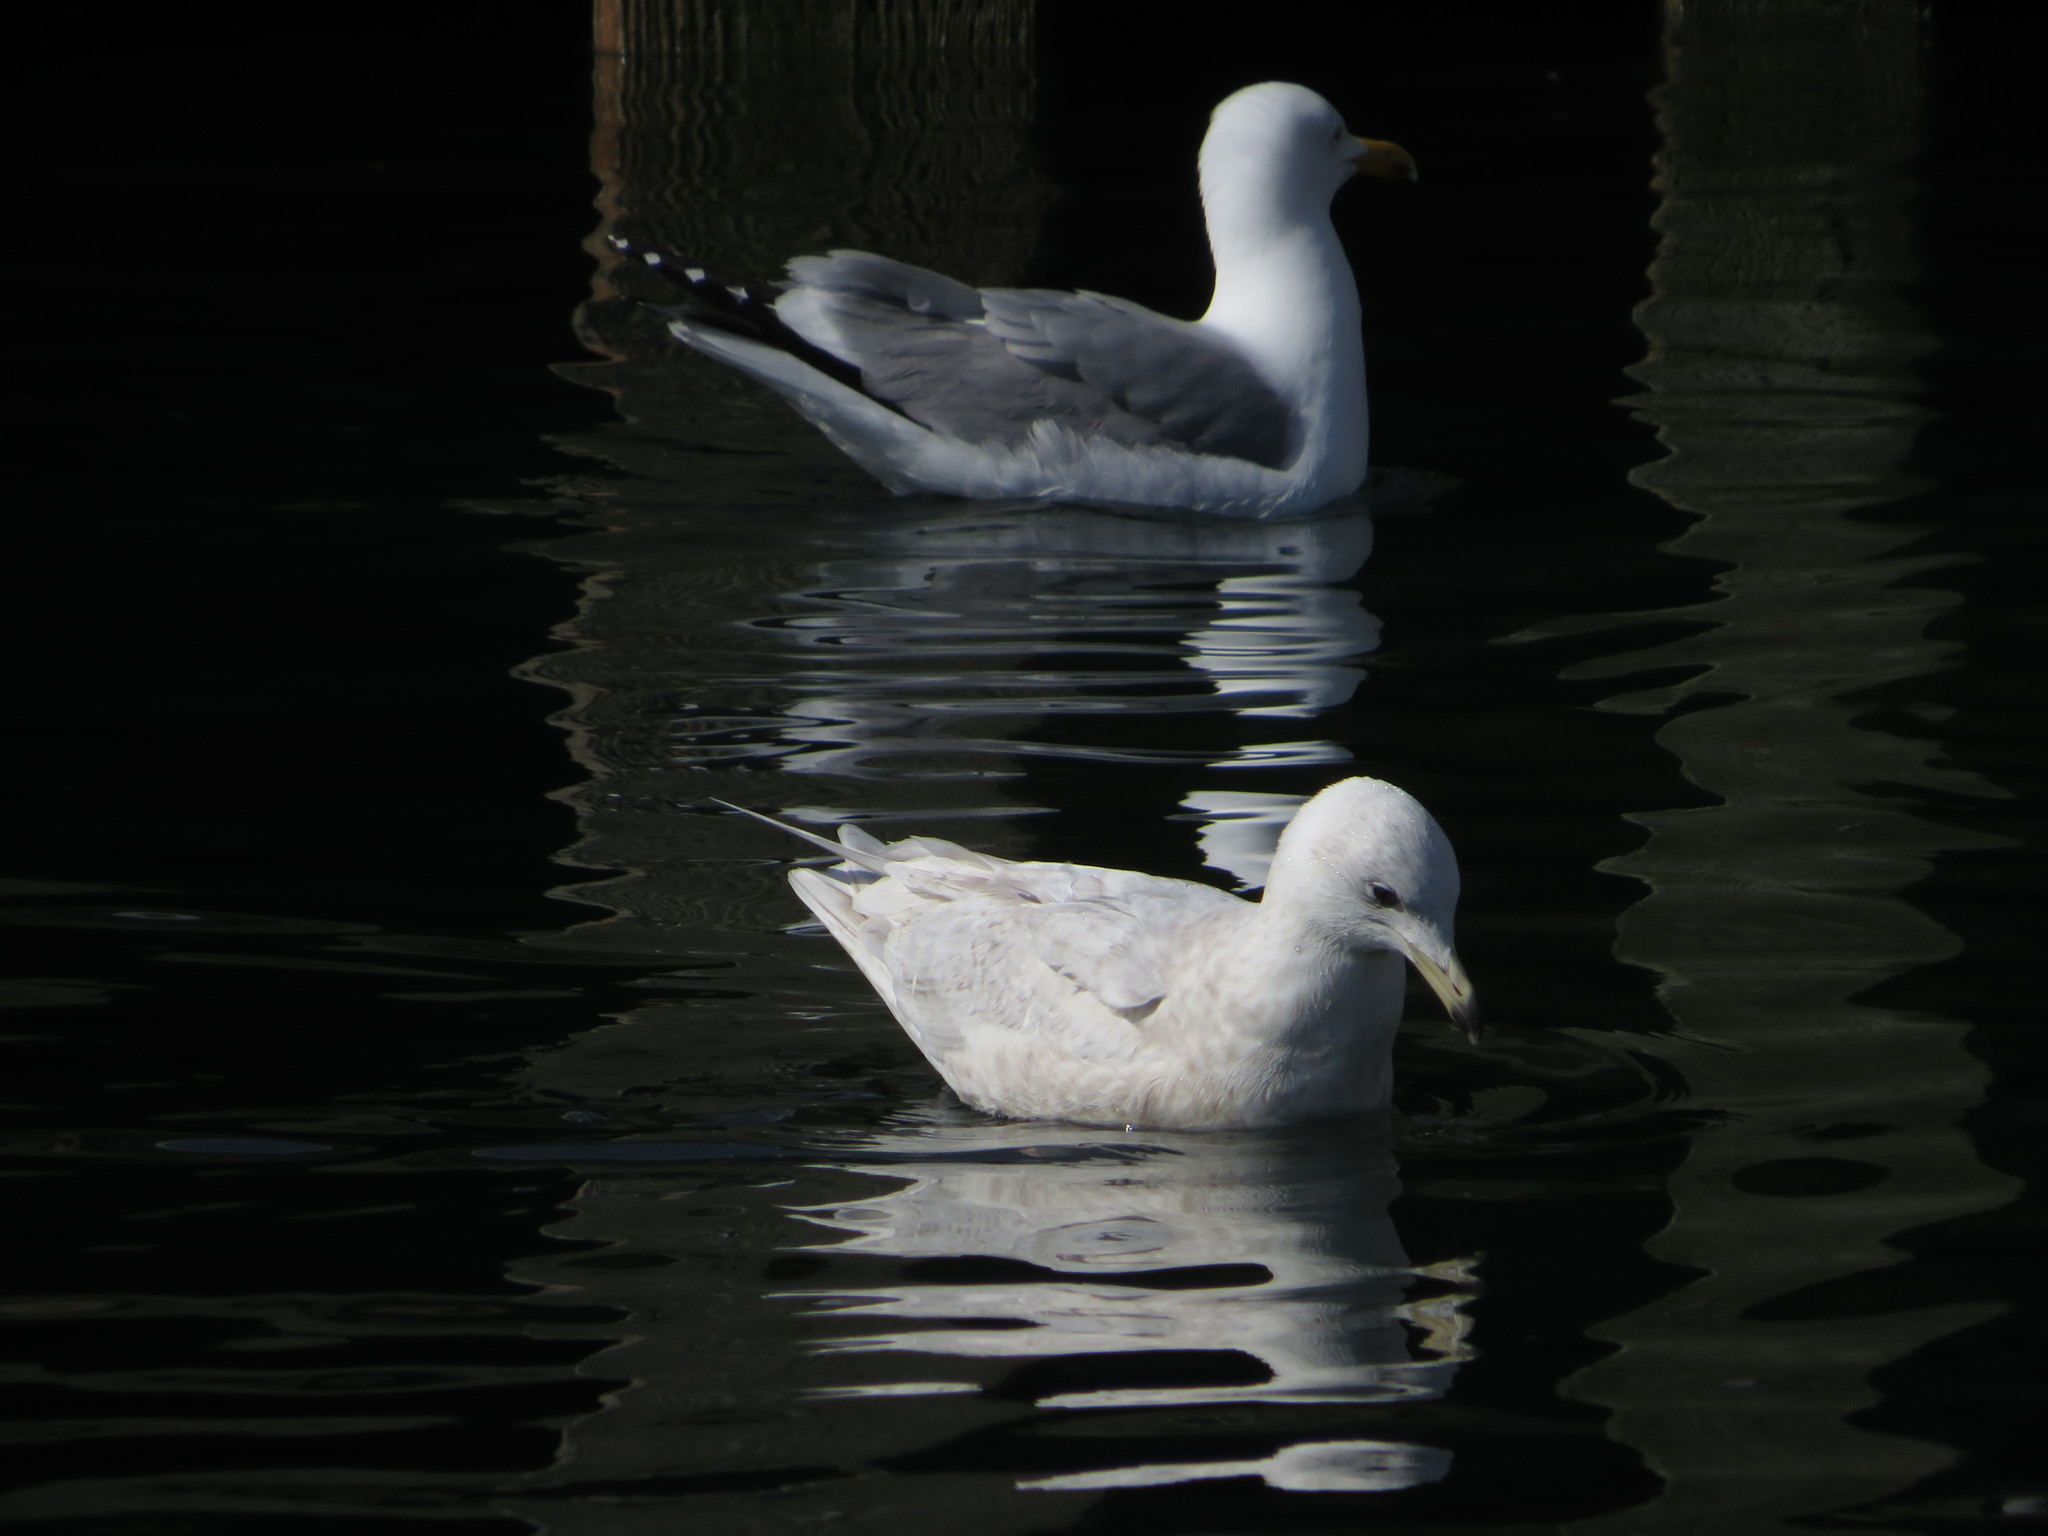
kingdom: Animalia
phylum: Chordata
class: Aves
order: Charadriiformes
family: Laridae
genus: Larus
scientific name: Larus glaucoides
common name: Iceland gull
